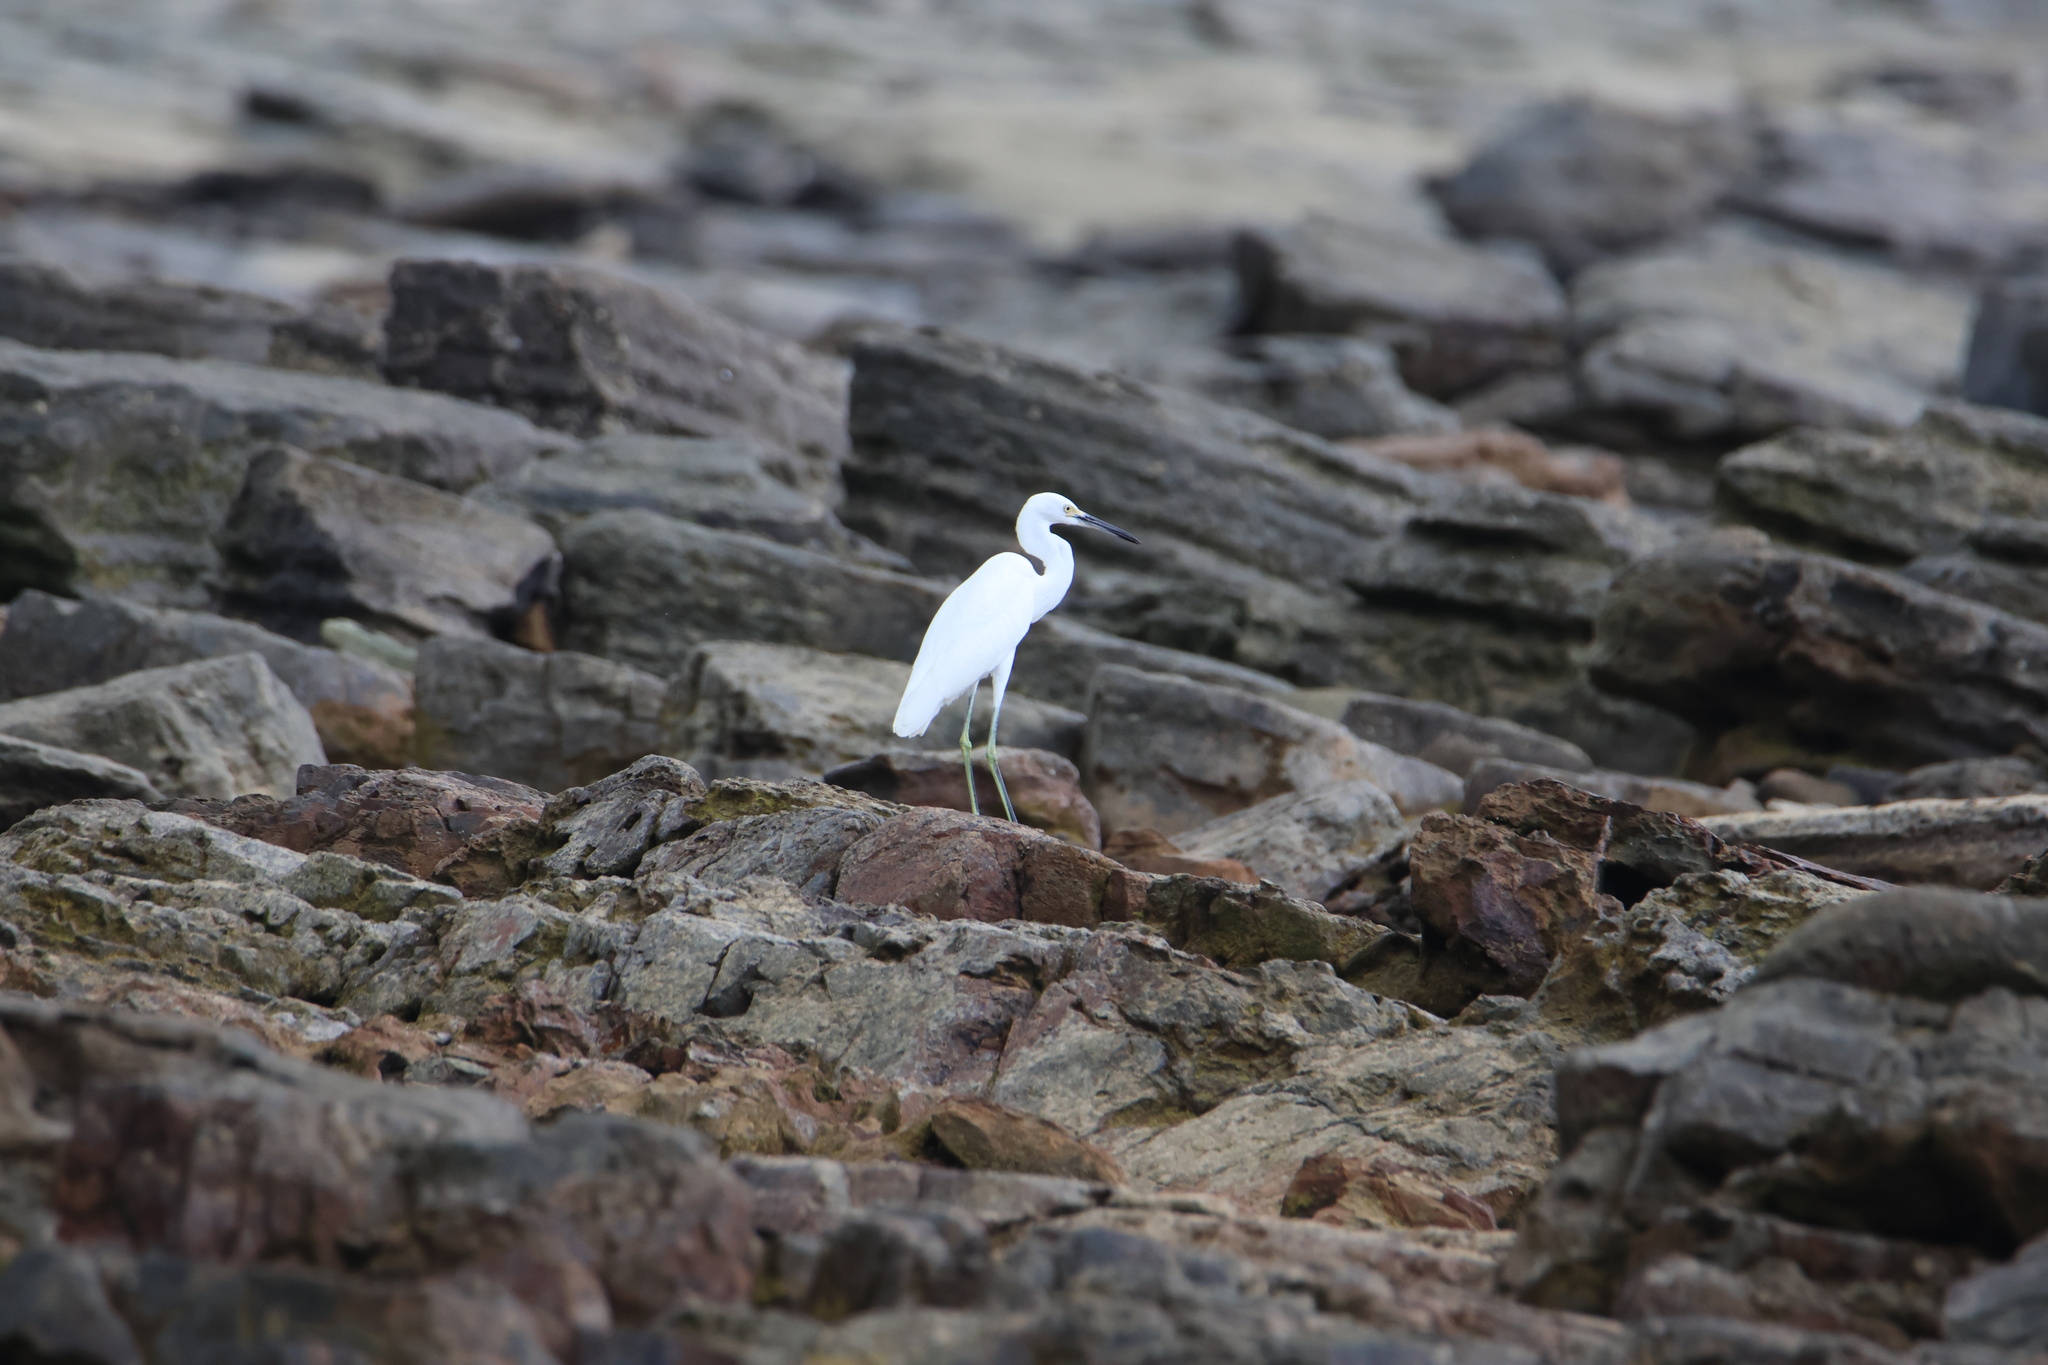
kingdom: Animalia
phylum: Chordata
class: Aves
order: Pelecaniformes
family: Ardeidae
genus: Egretta
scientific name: Egretta thula
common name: Snowy egret
